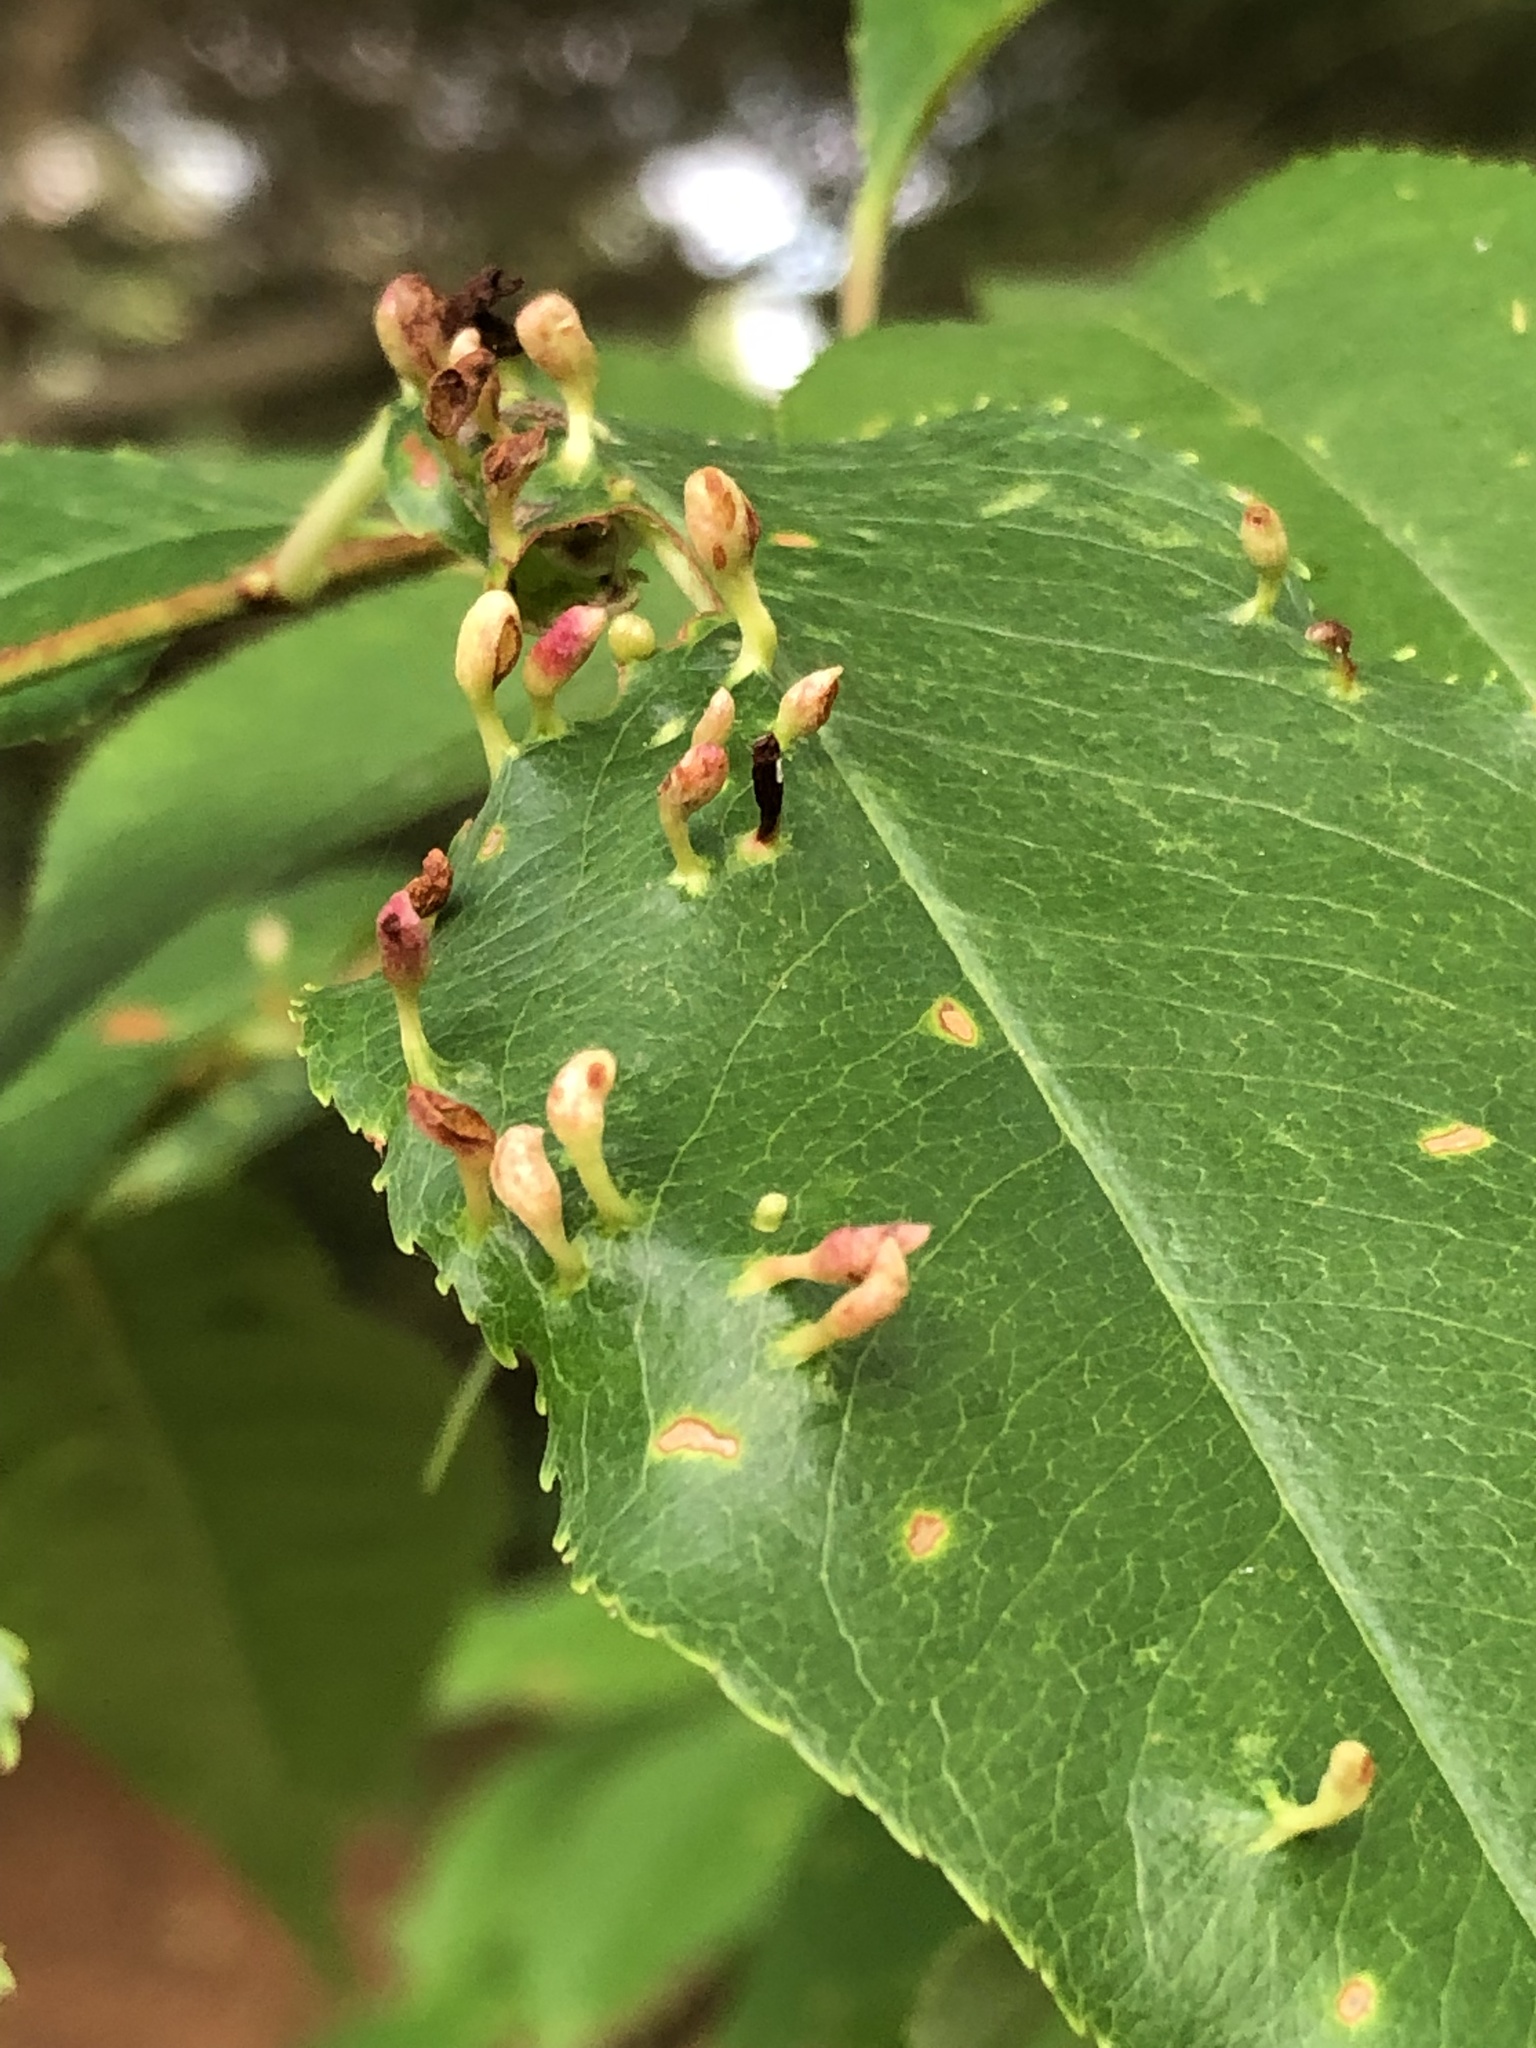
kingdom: Animalia
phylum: Arthropoda
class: Arachnida
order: Trombidiformes
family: Eriophyidae
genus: Eriophyes
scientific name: Eriophyes
